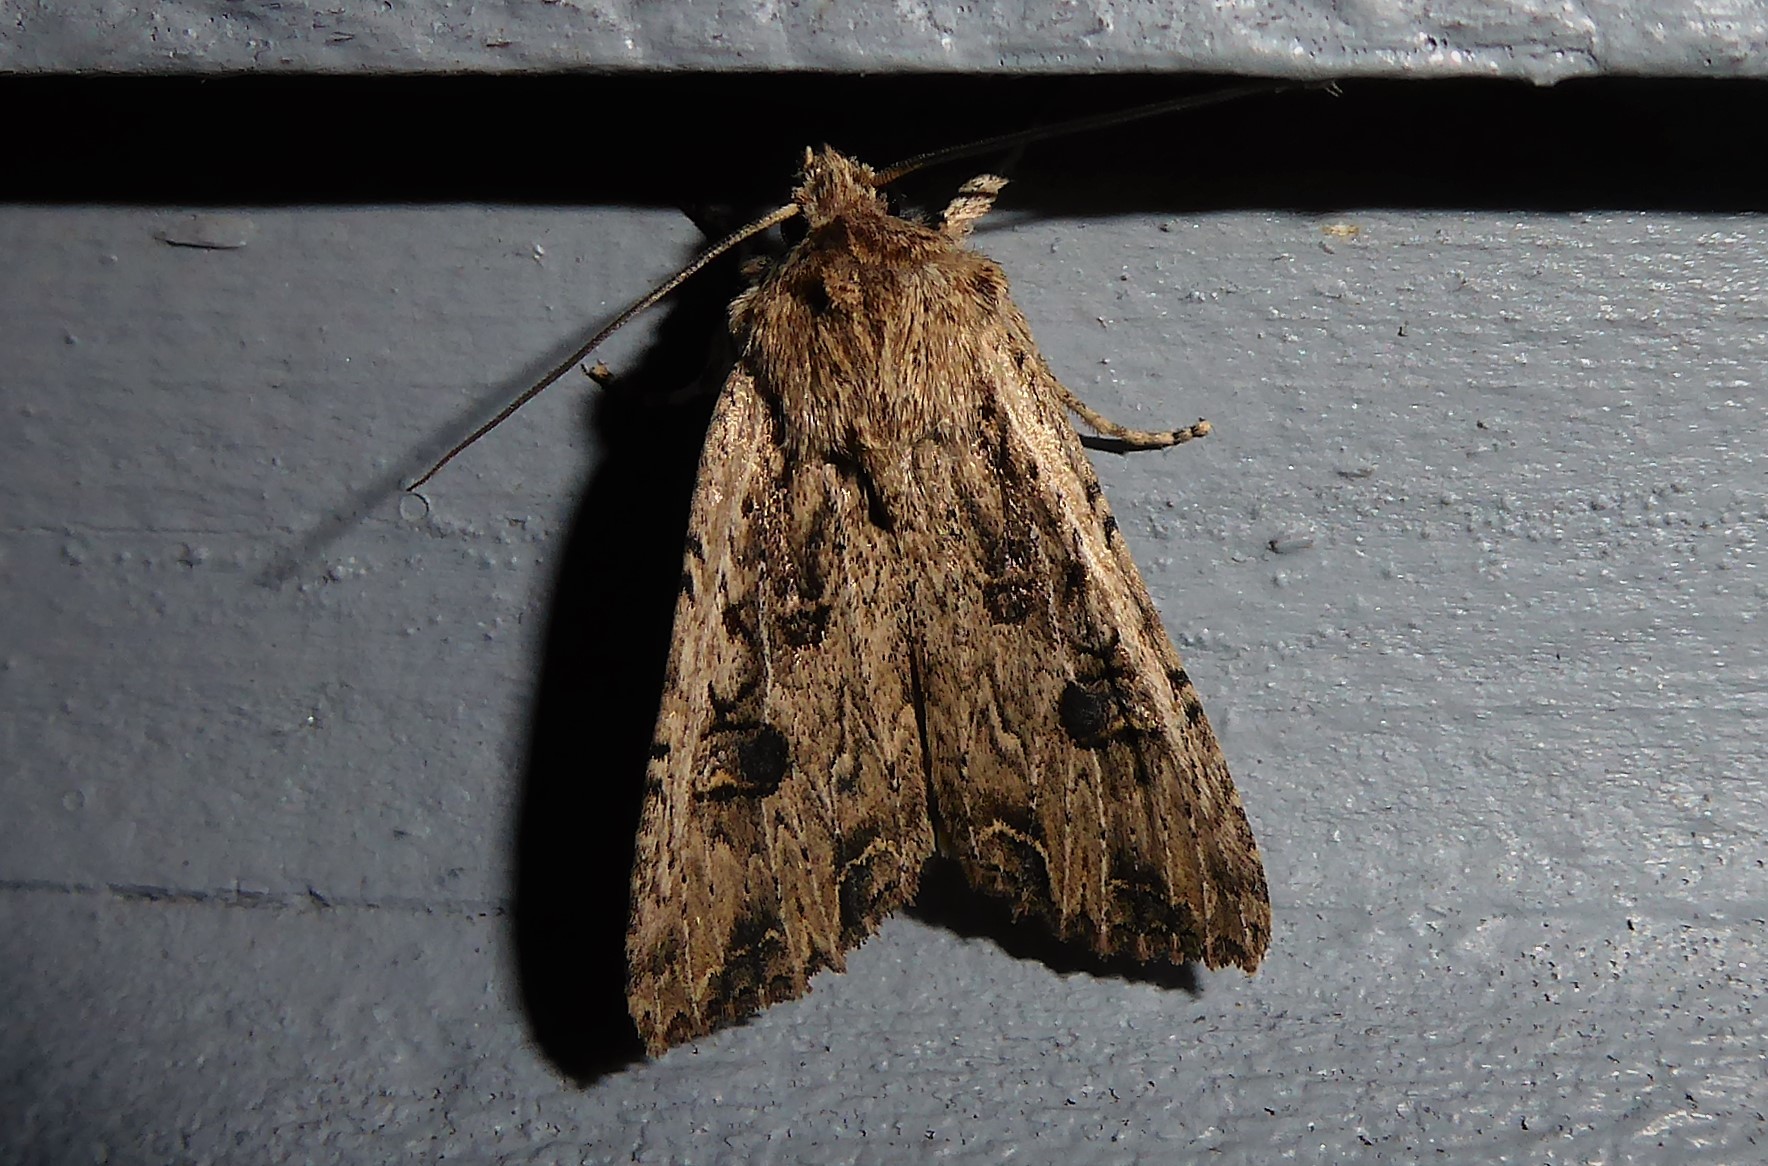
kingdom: Animalia
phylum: Arthropoda
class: Insecta
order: Lepidoptera
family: Noctuidae
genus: Ichneutica
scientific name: Ichneutica lignana
